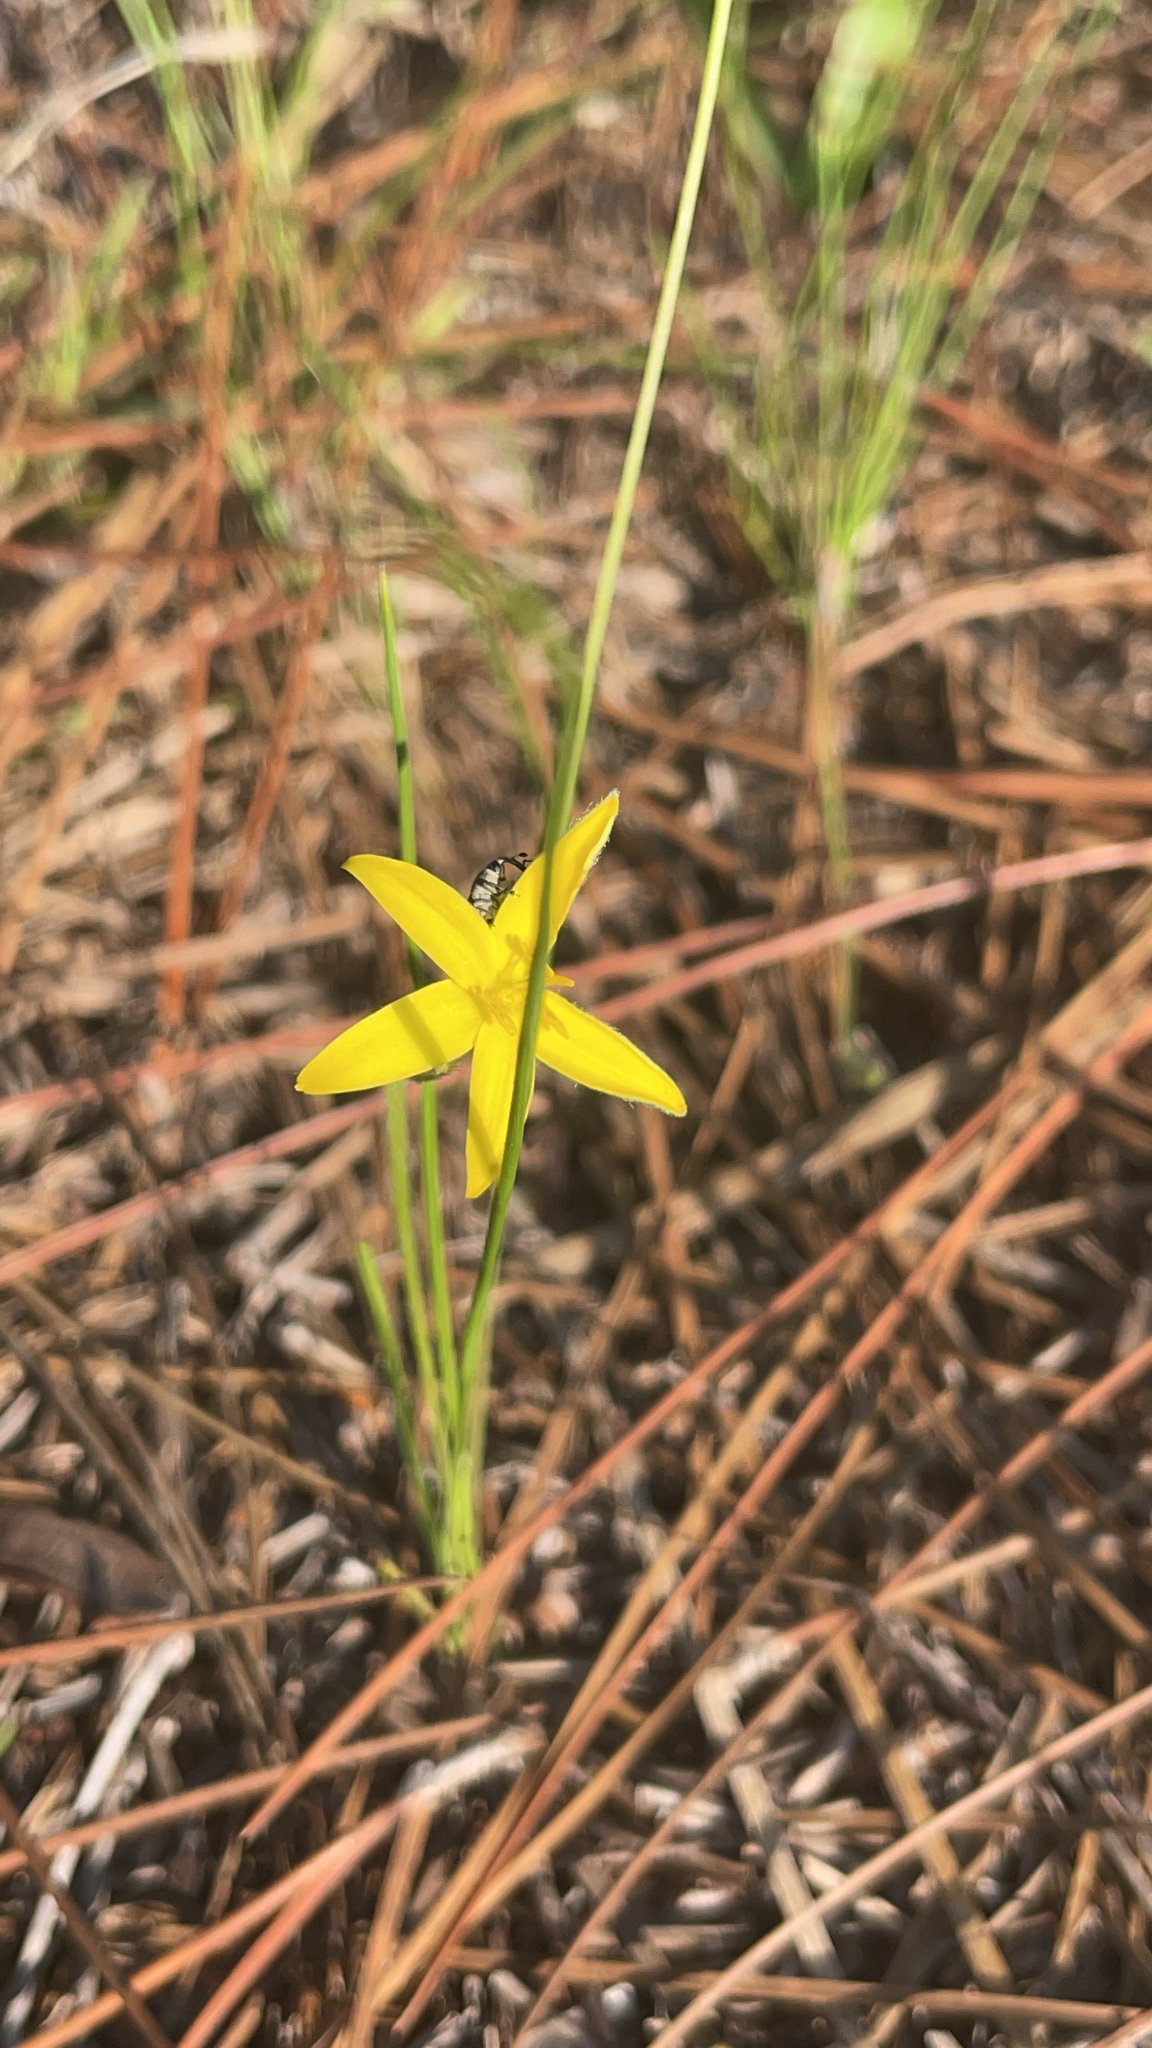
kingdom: Plantae
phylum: Tracheophyta
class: Liliopsida
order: Asparagales
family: Hypoxidaceae
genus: Hypoxis
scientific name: Hypoxis juncea
